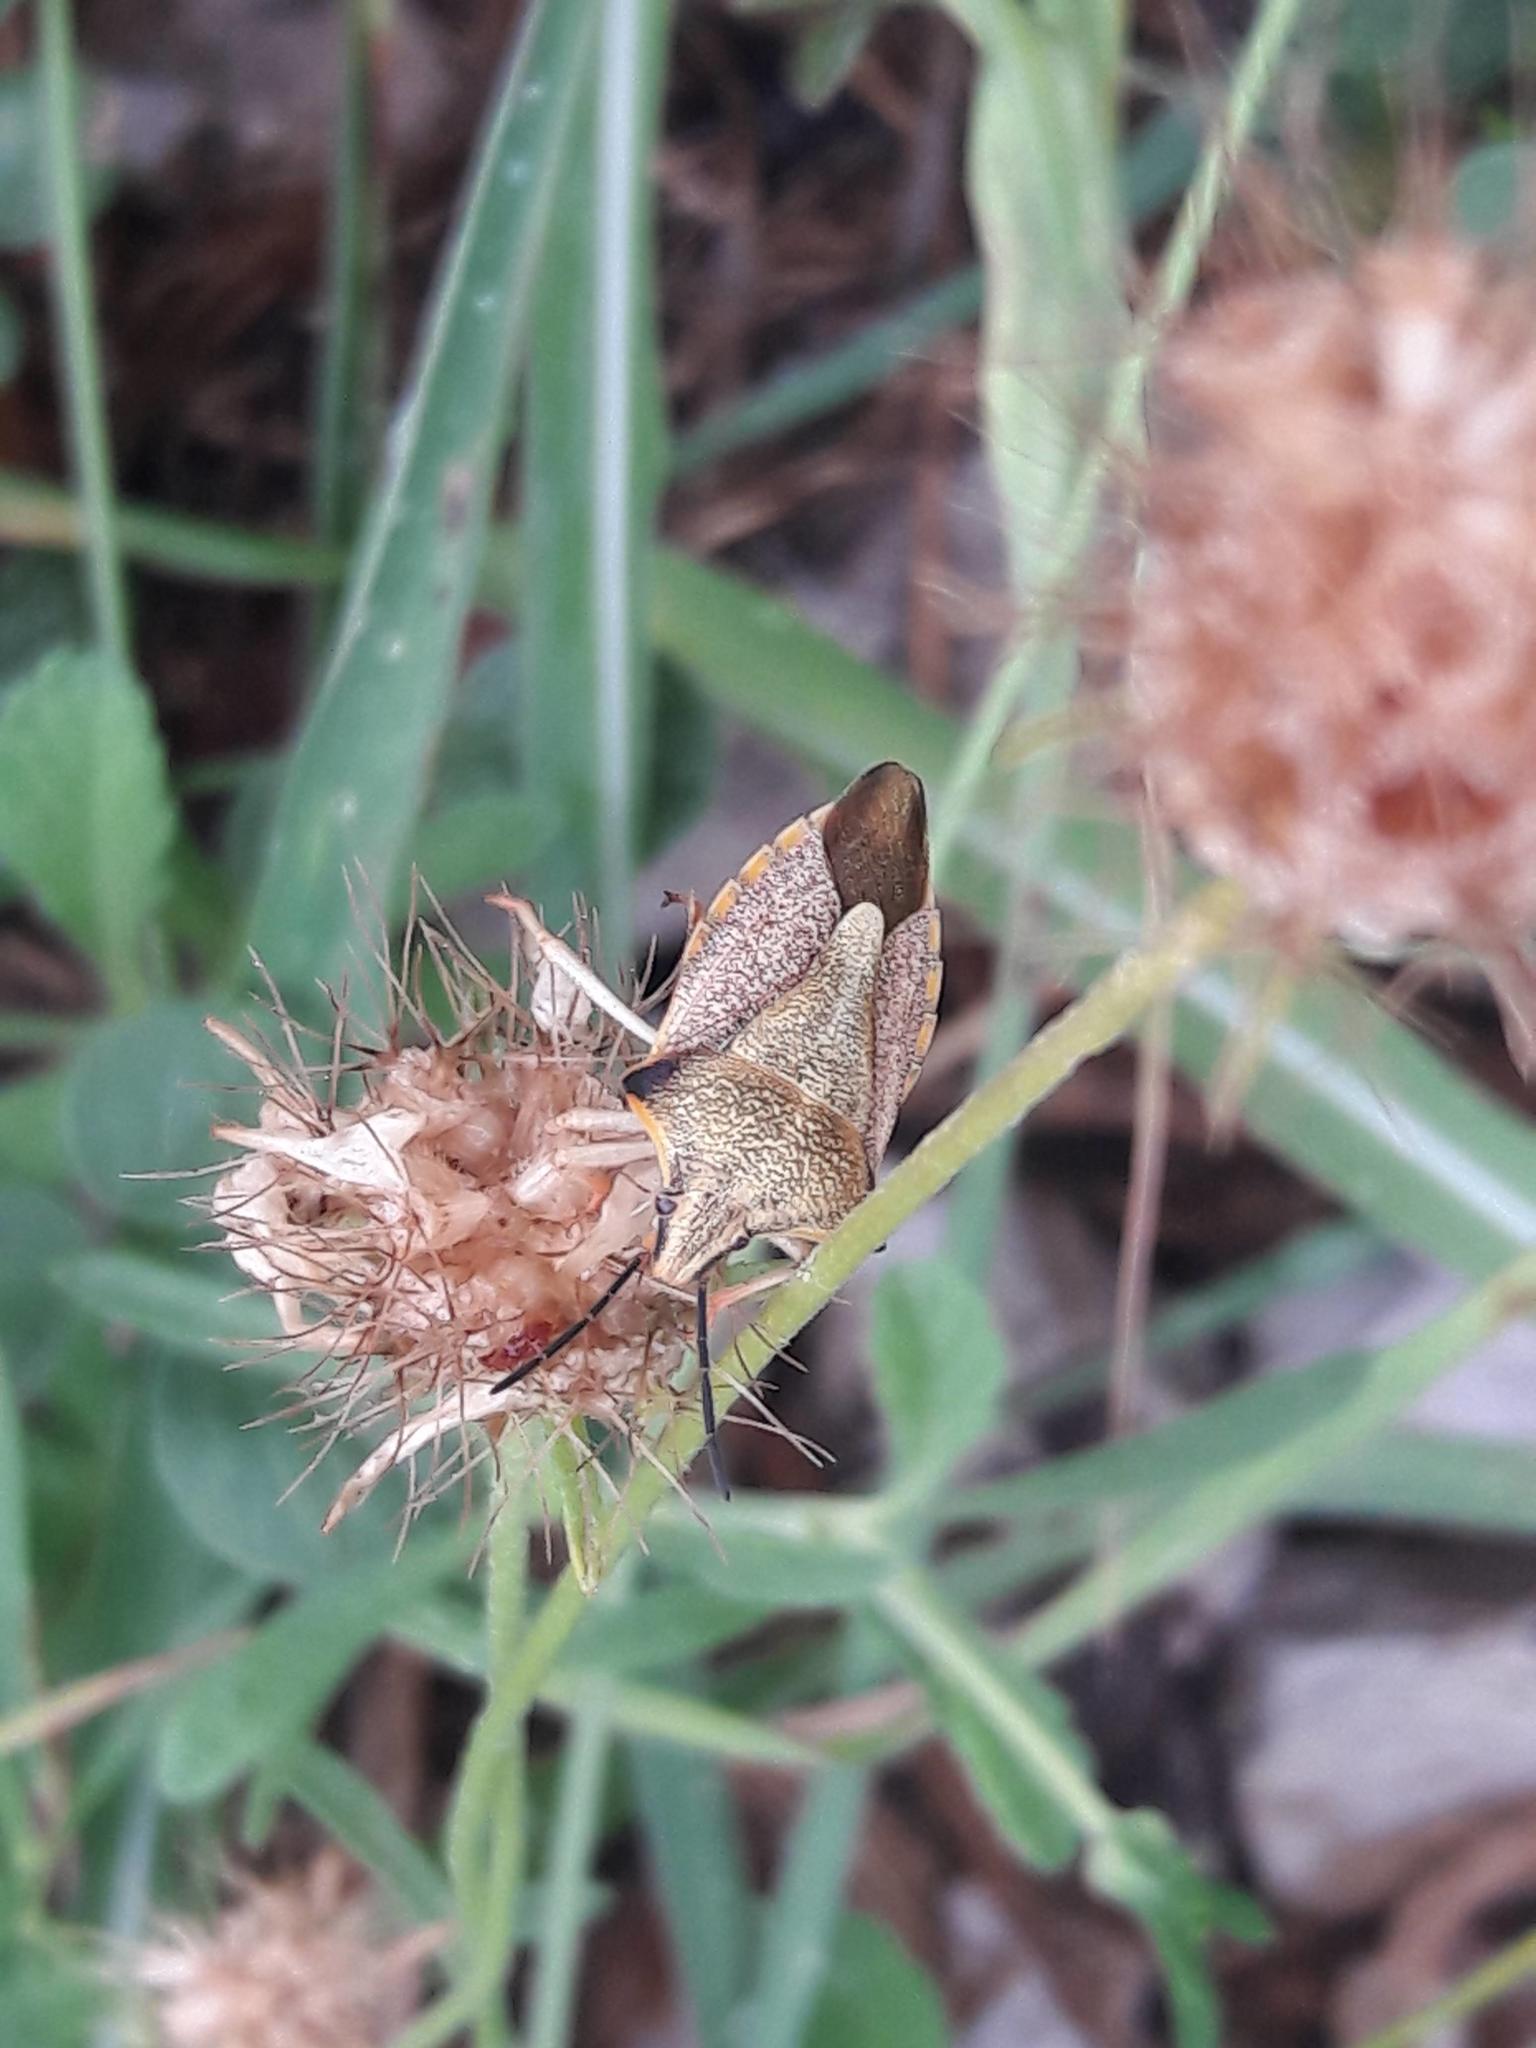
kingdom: Animalia
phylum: Arthropoda
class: Insecta
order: Hemiptera
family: Pentatomidae
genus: Carpocoris
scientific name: Carpocoris mediterraneus
